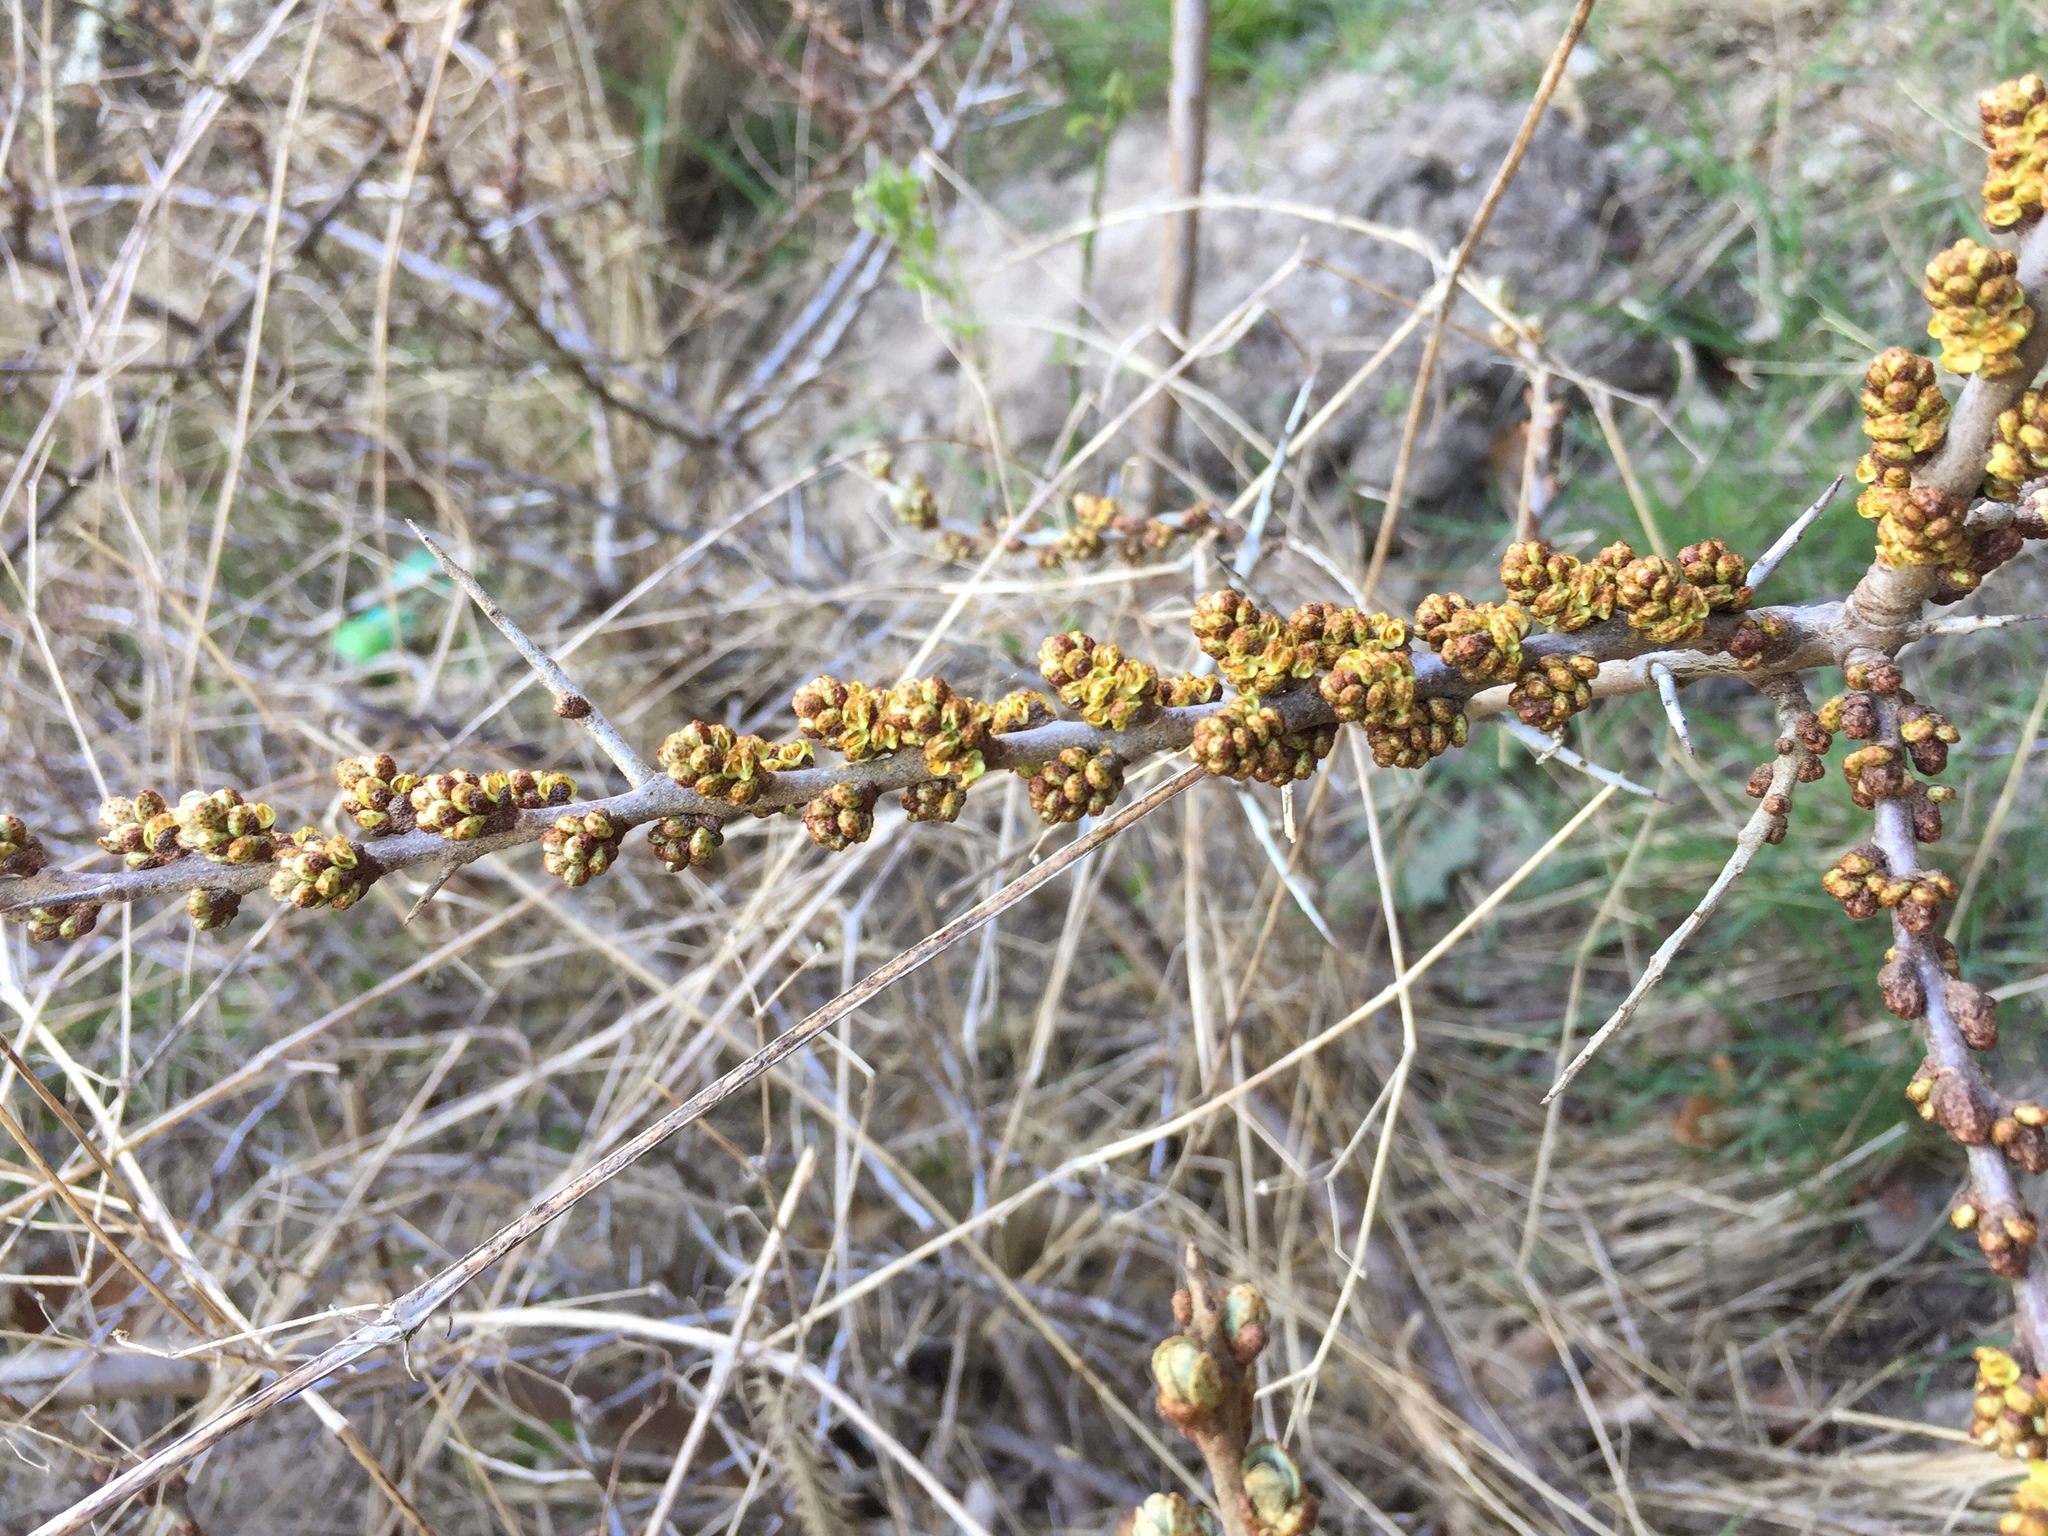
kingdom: Plantae
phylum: Tracheophyta
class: Magnoliopsida
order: Rosales
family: Elaeagnaceae
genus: Hippophae
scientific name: Hippophae rhamnoides
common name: Sea-buckthorn
